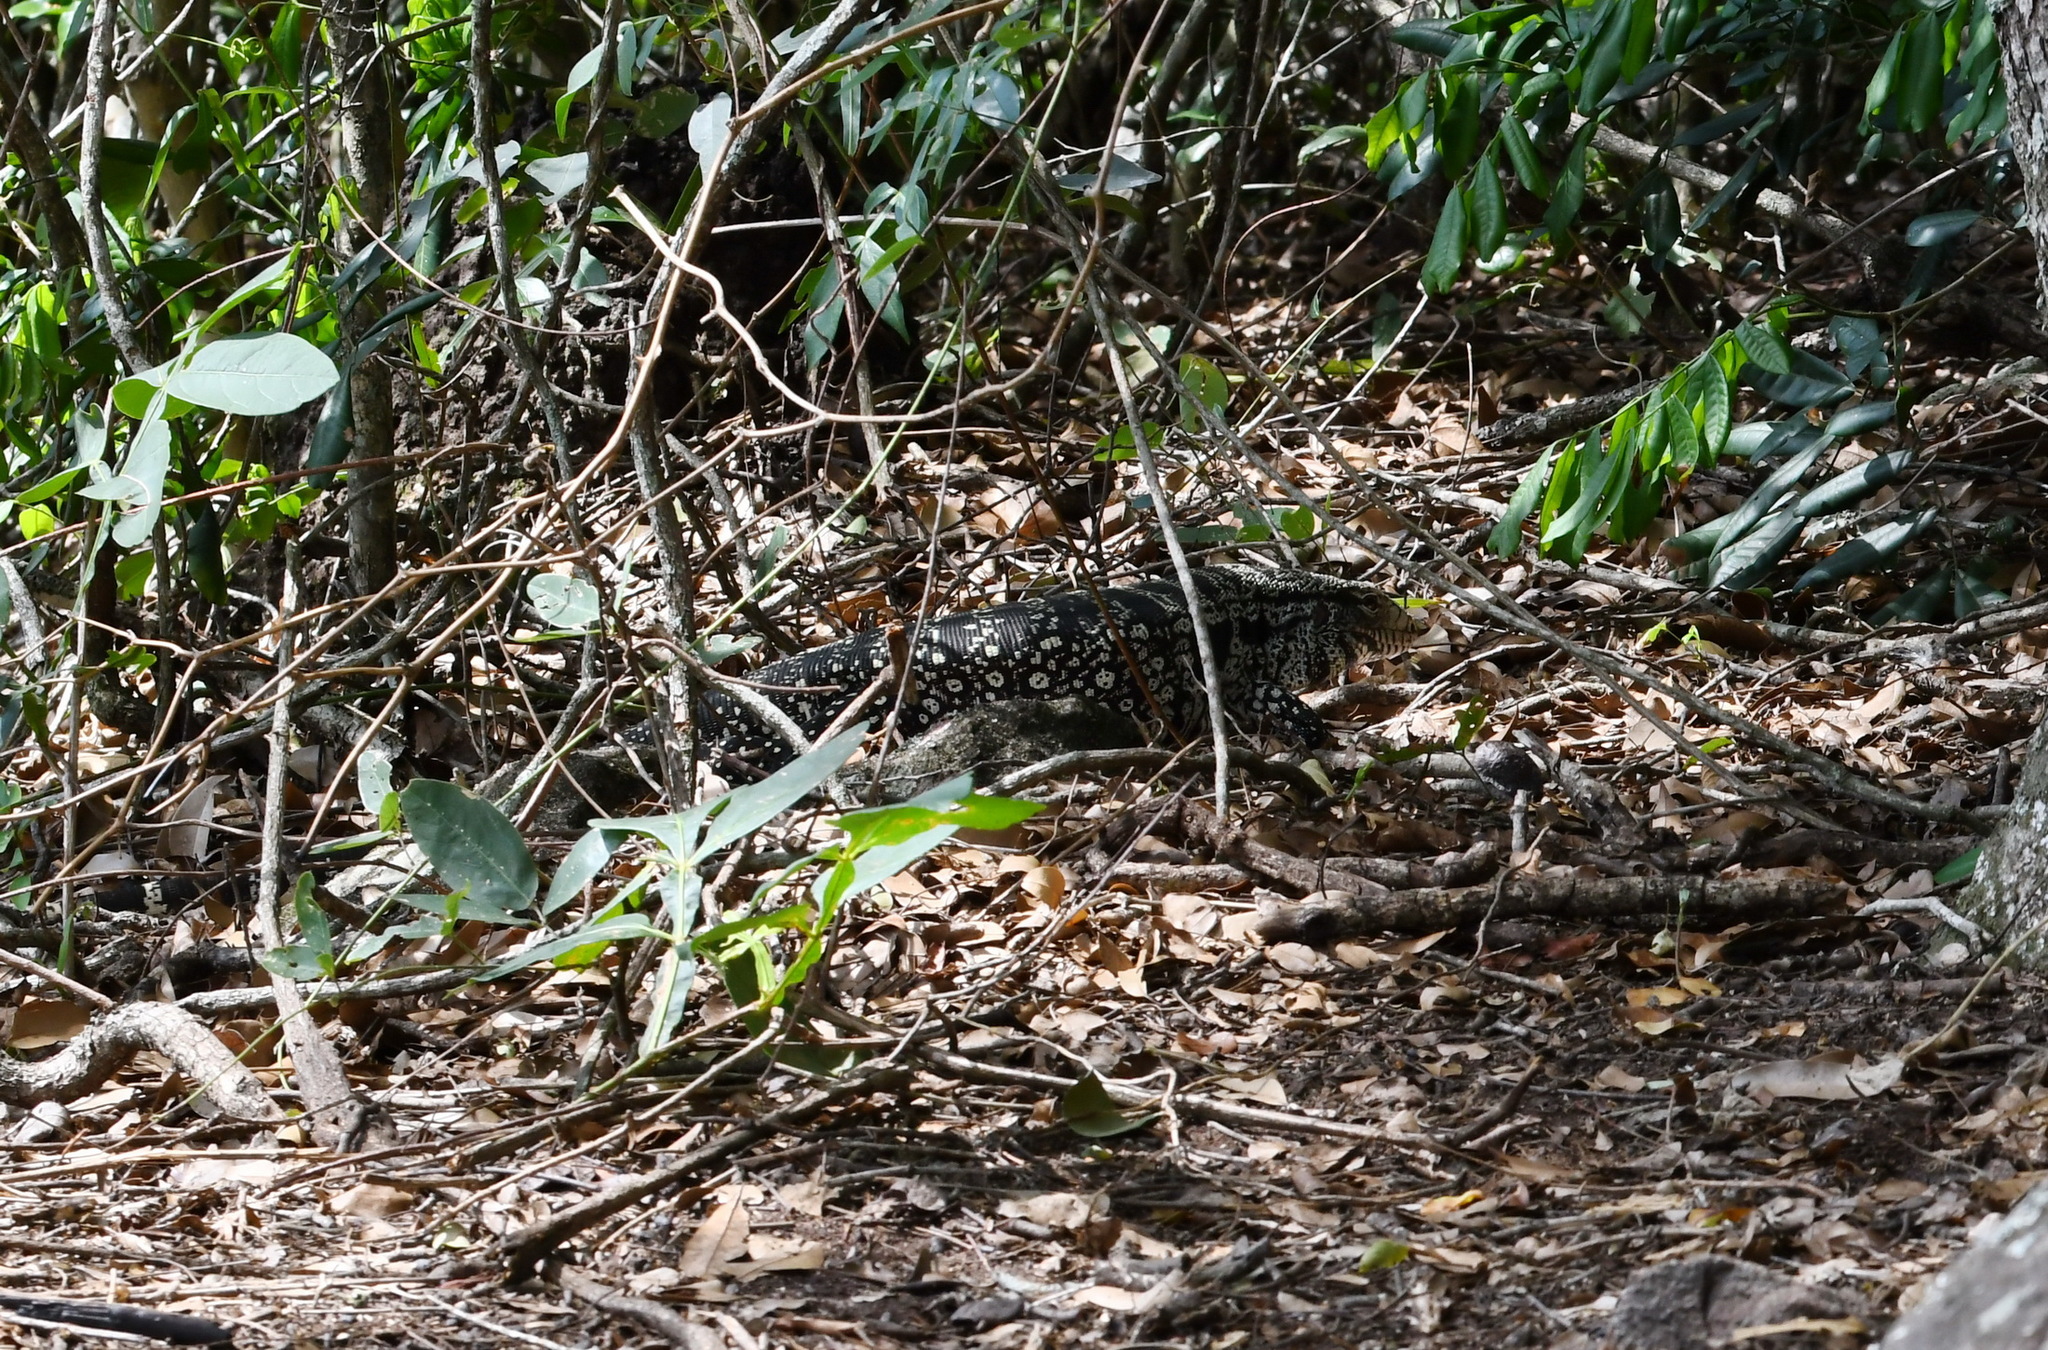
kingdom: Animalia
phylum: Chordata
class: Squamata
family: Teiidae
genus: Salvator
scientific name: Salvator merianae
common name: Argentine black and white tegu
